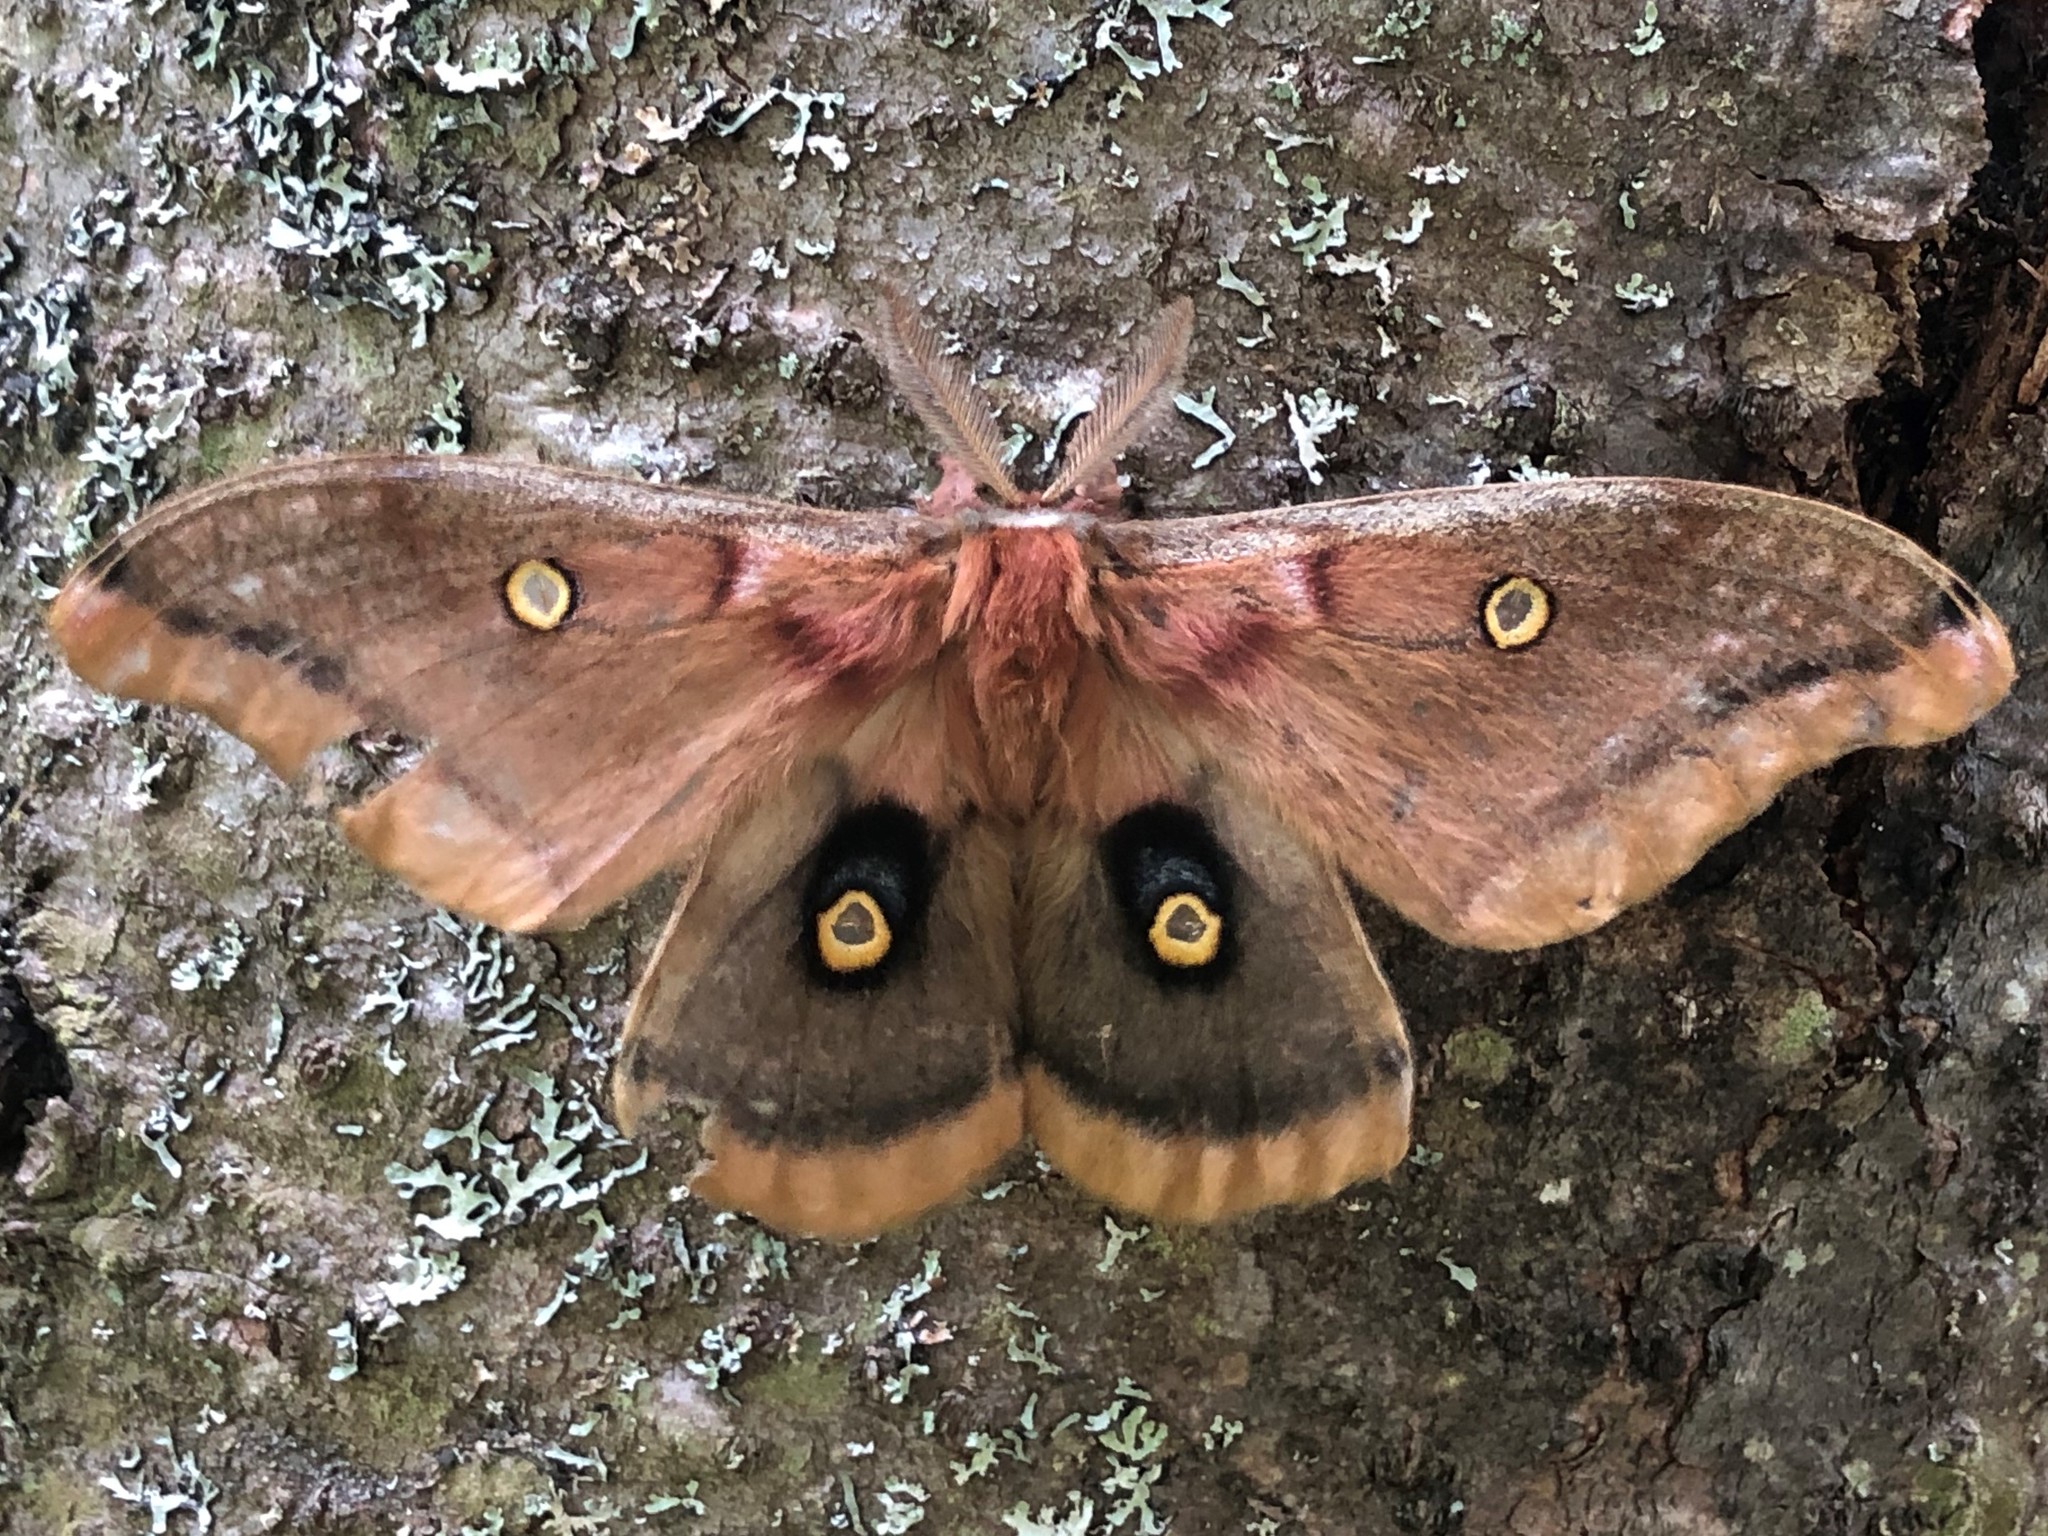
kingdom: Animalia
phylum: Arthropoda
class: Insecta
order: Lepidoptera
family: Saturniidae
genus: Antheraea
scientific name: Antheraea polyphemus
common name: Polyphemus moth
